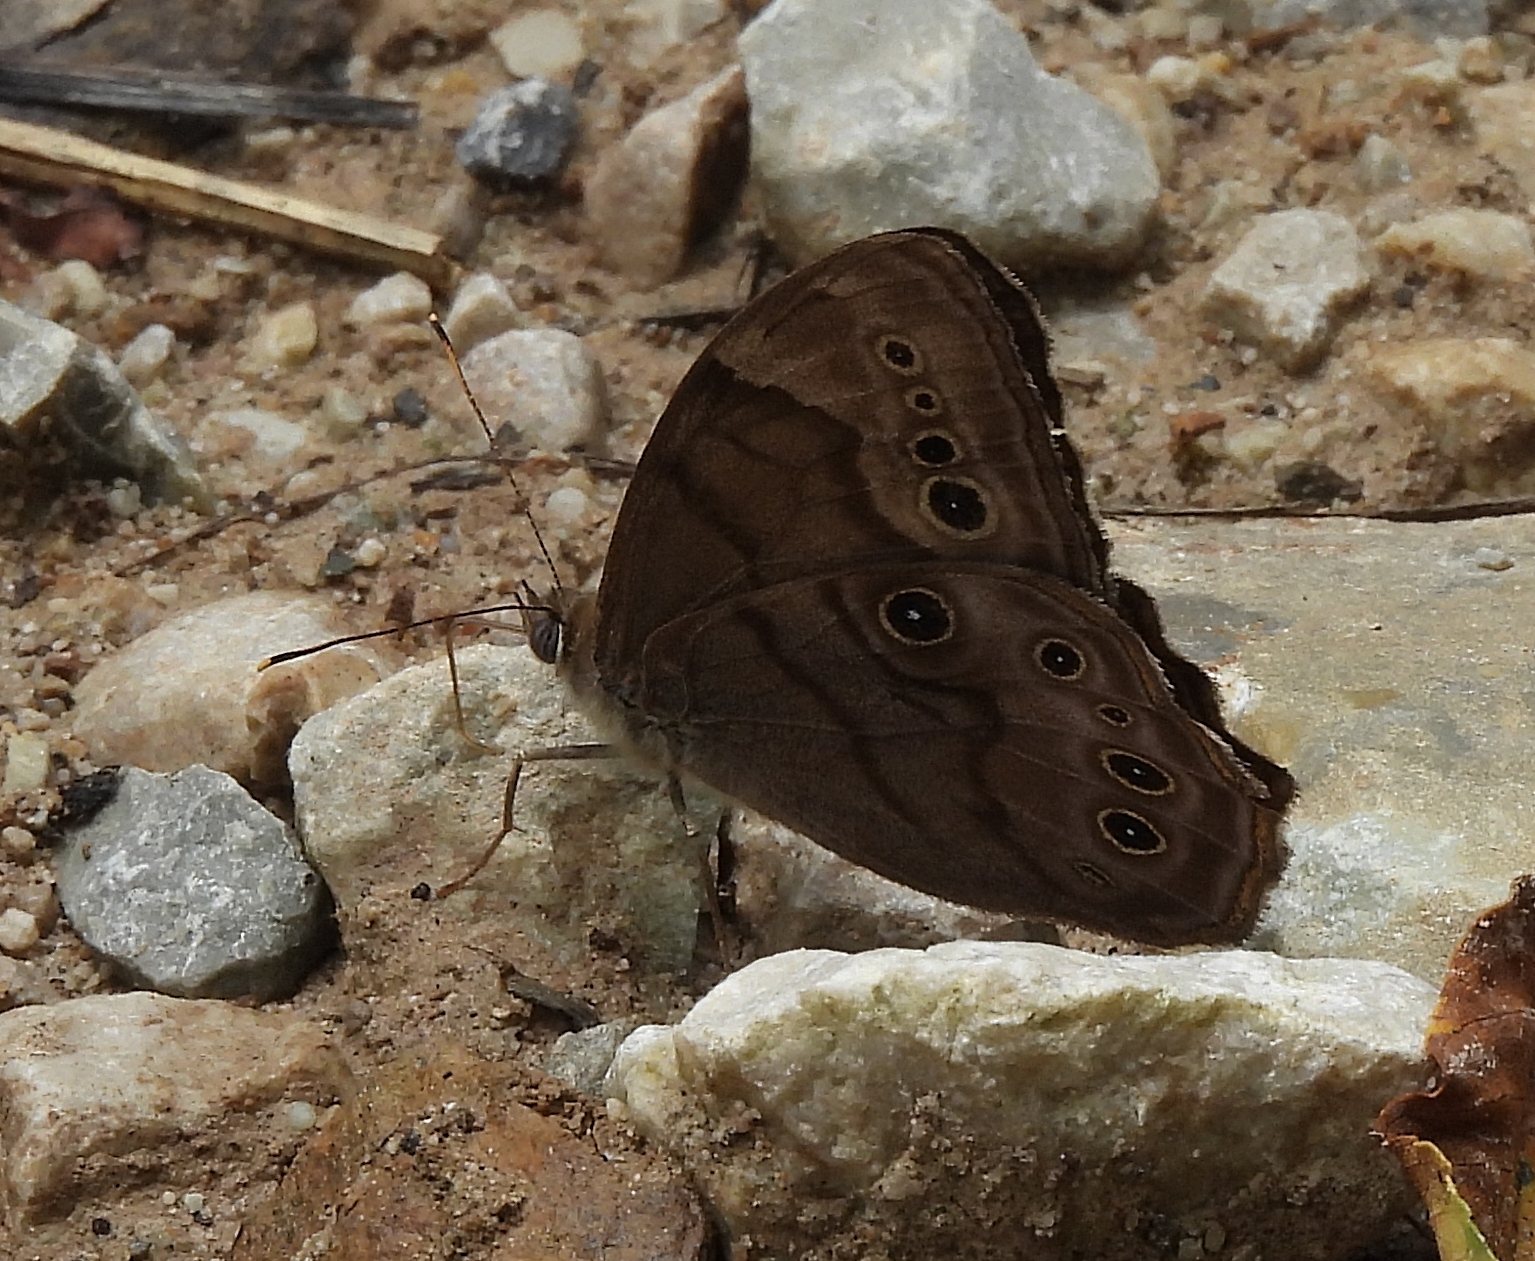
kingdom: Animalia
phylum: Arthropoda
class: Insecta
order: Lepidoptera
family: Nymphalidae
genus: Lethe
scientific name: Lethe anthedon
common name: Northern pearly-eye
